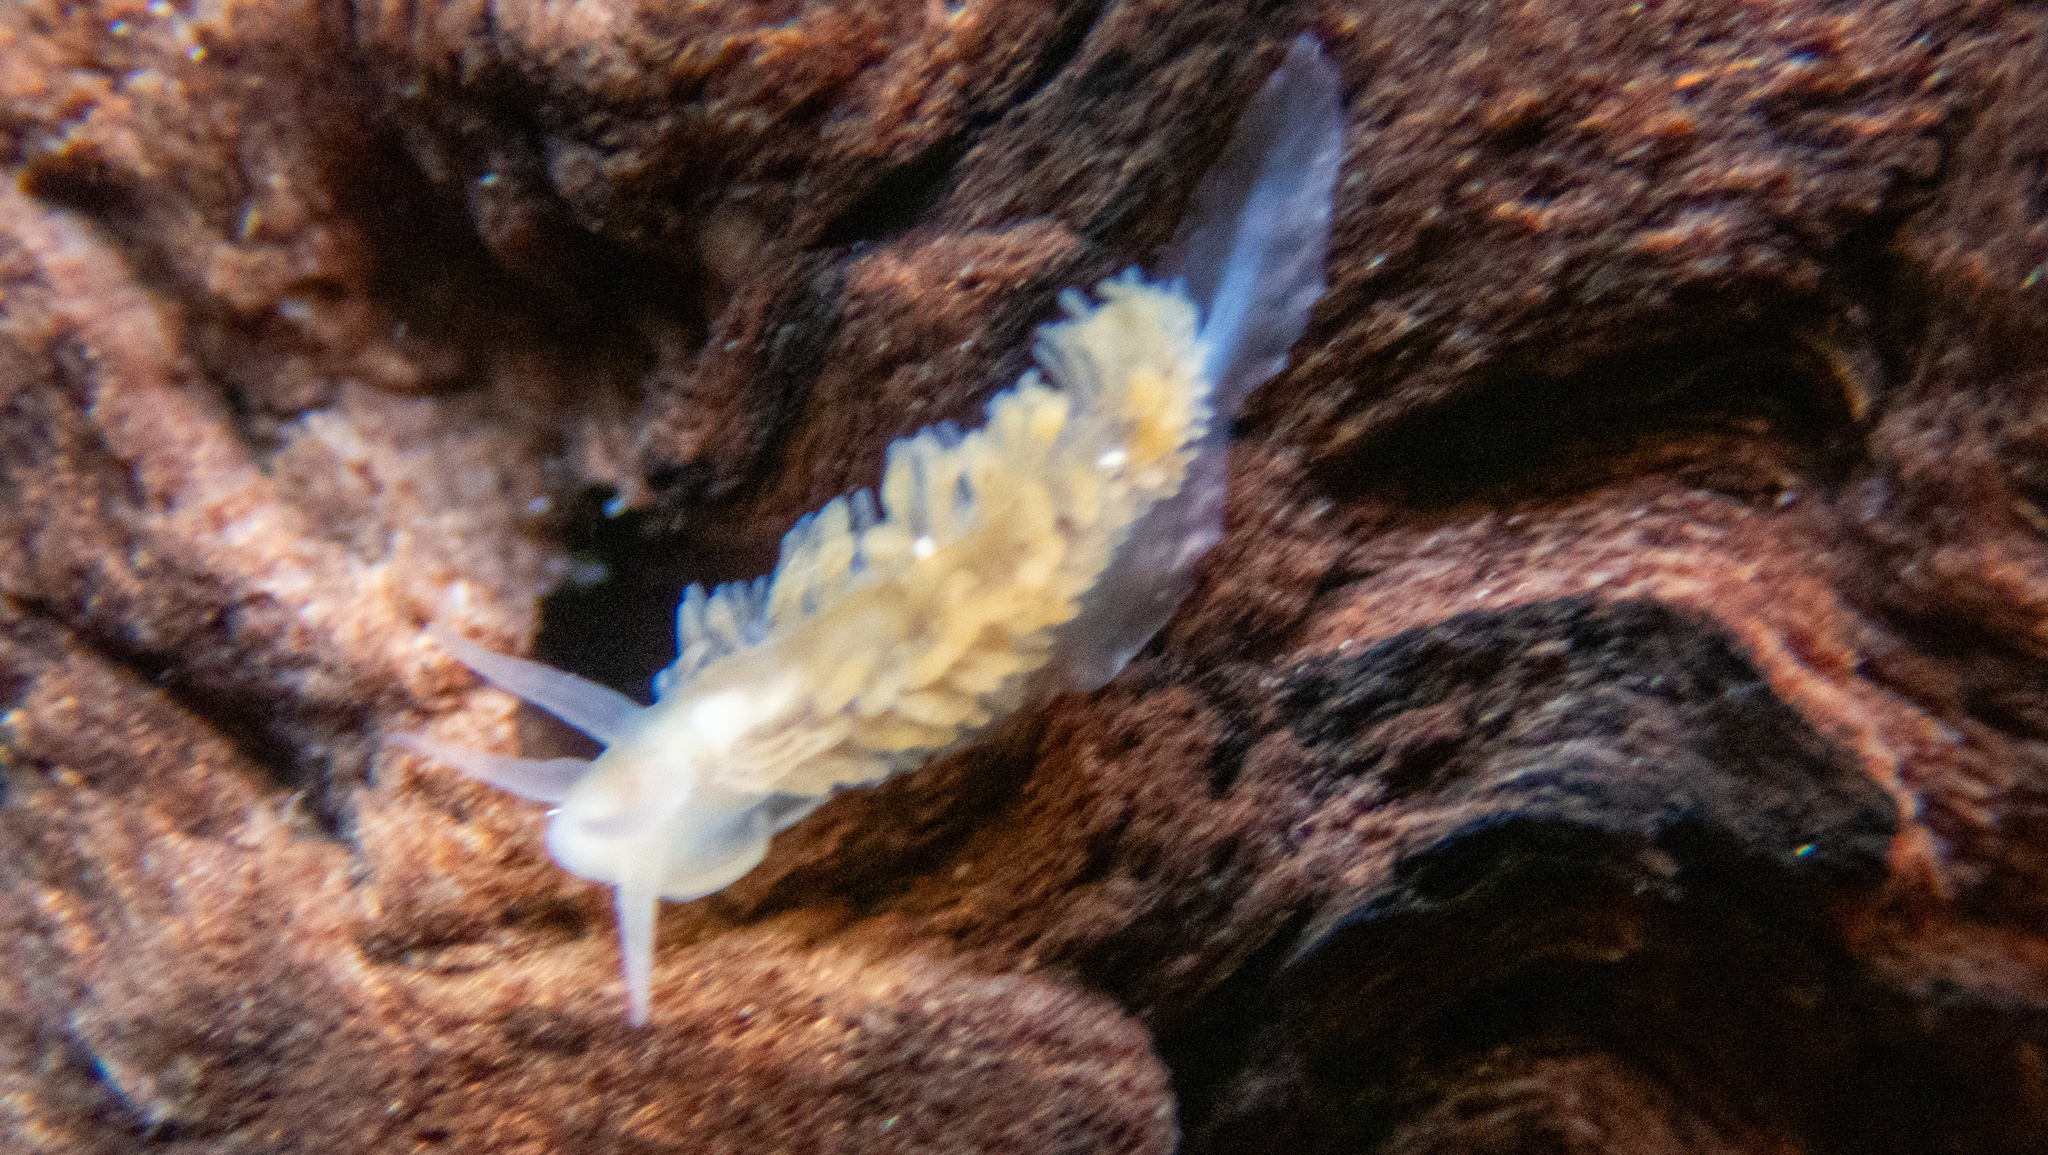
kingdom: Animalia
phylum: Mollusca
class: Gastropoda
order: Nudibranchia
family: Fionidae
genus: Fiona
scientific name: Fiona pinnata
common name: Fiona
